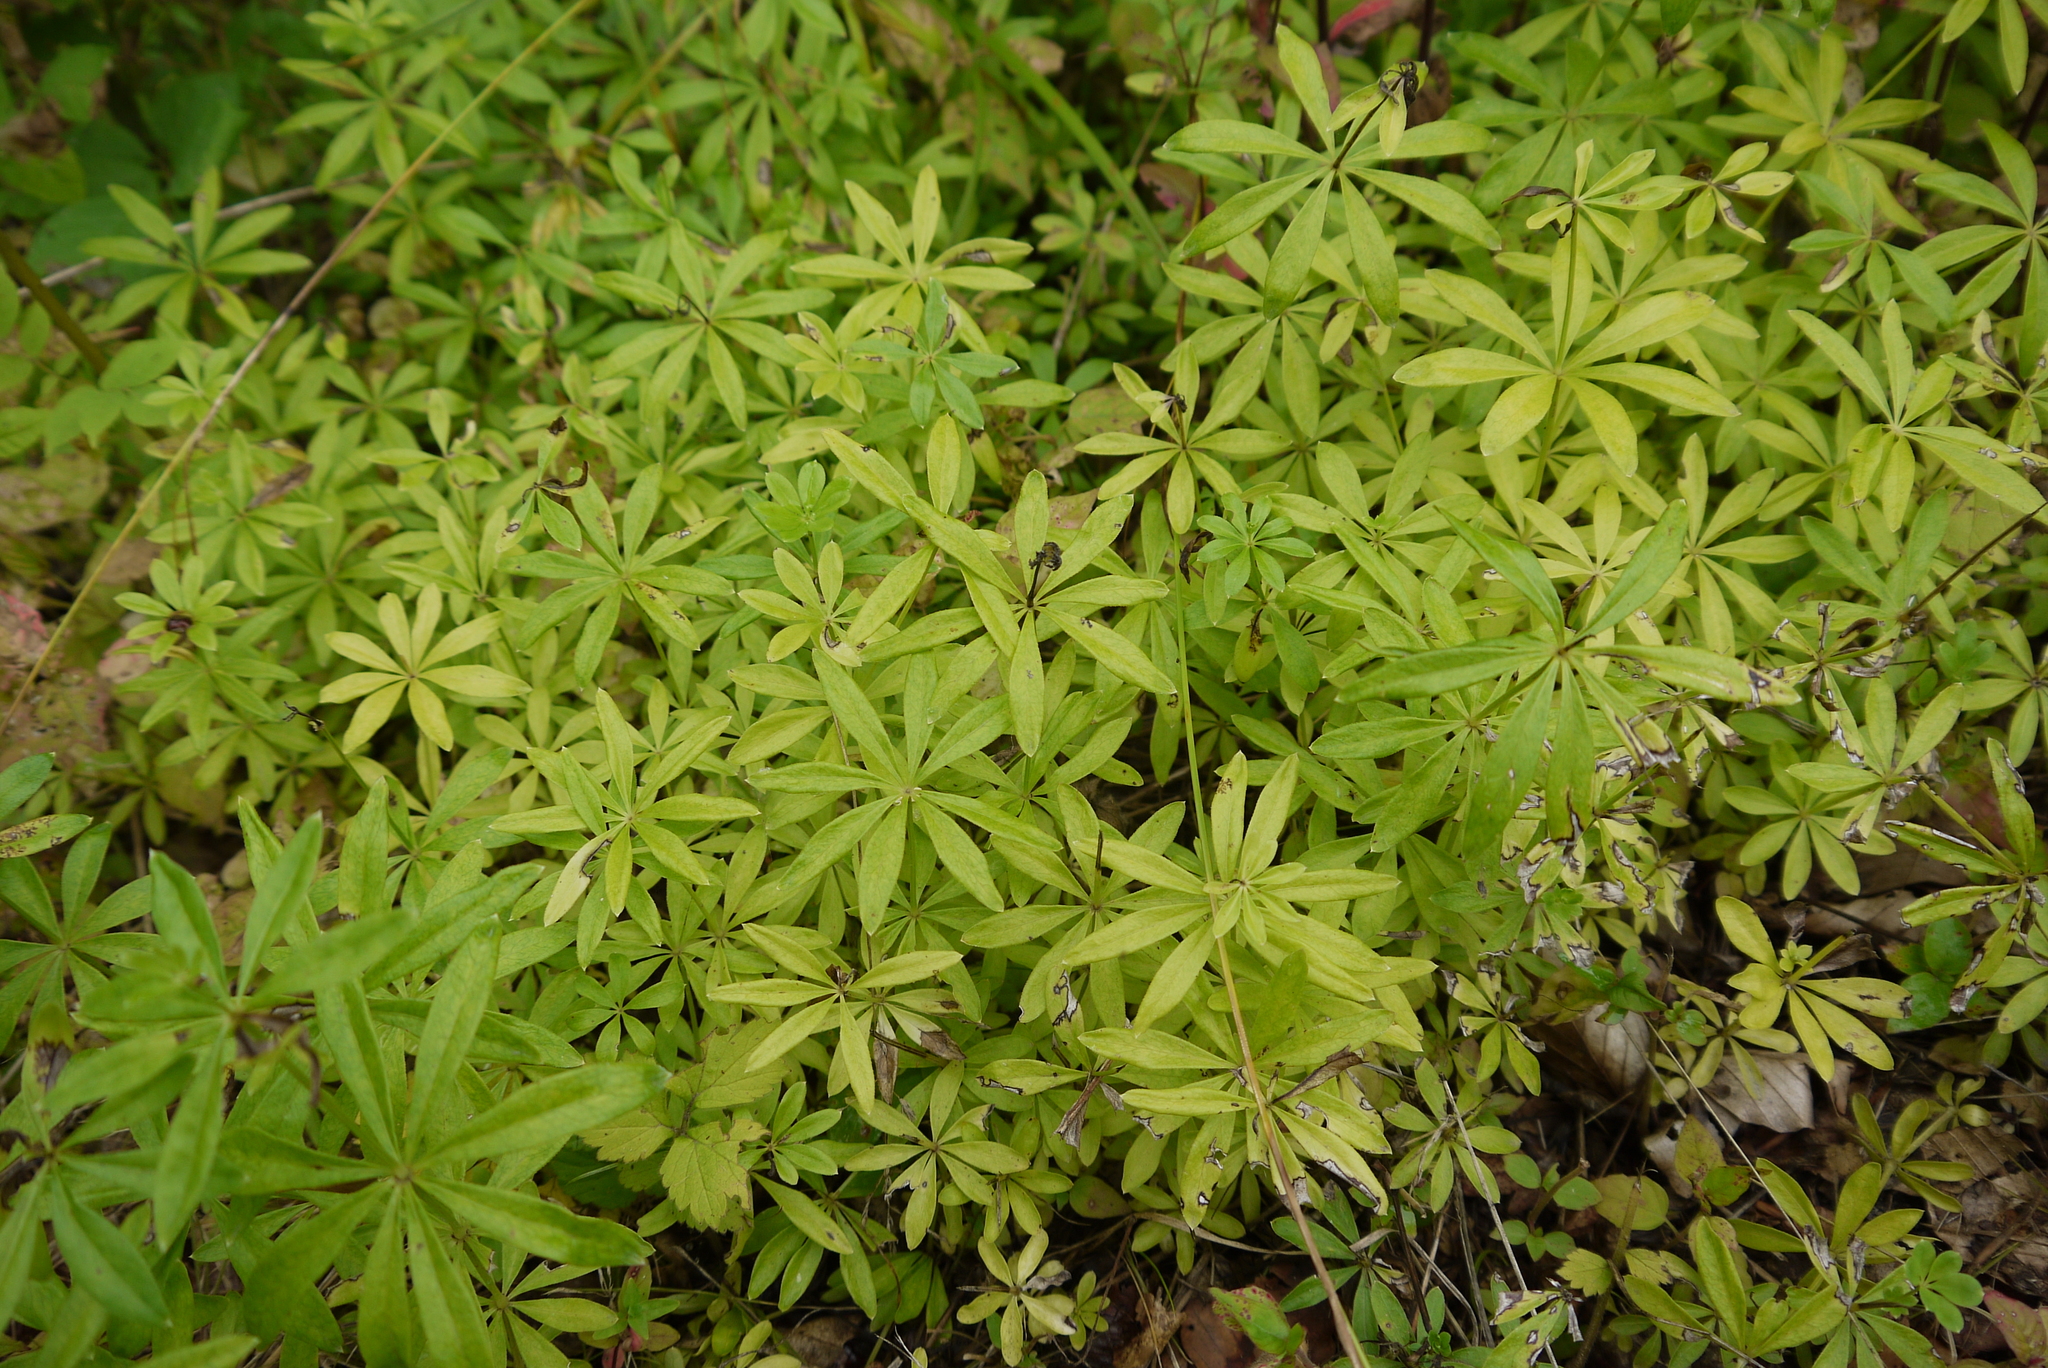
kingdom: Plantae
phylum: Tracheophyta
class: Magnoliopsida
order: Gentianales
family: Rubiaceae
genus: Galium
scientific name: Galium odoratum
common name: Sweet woodruff
